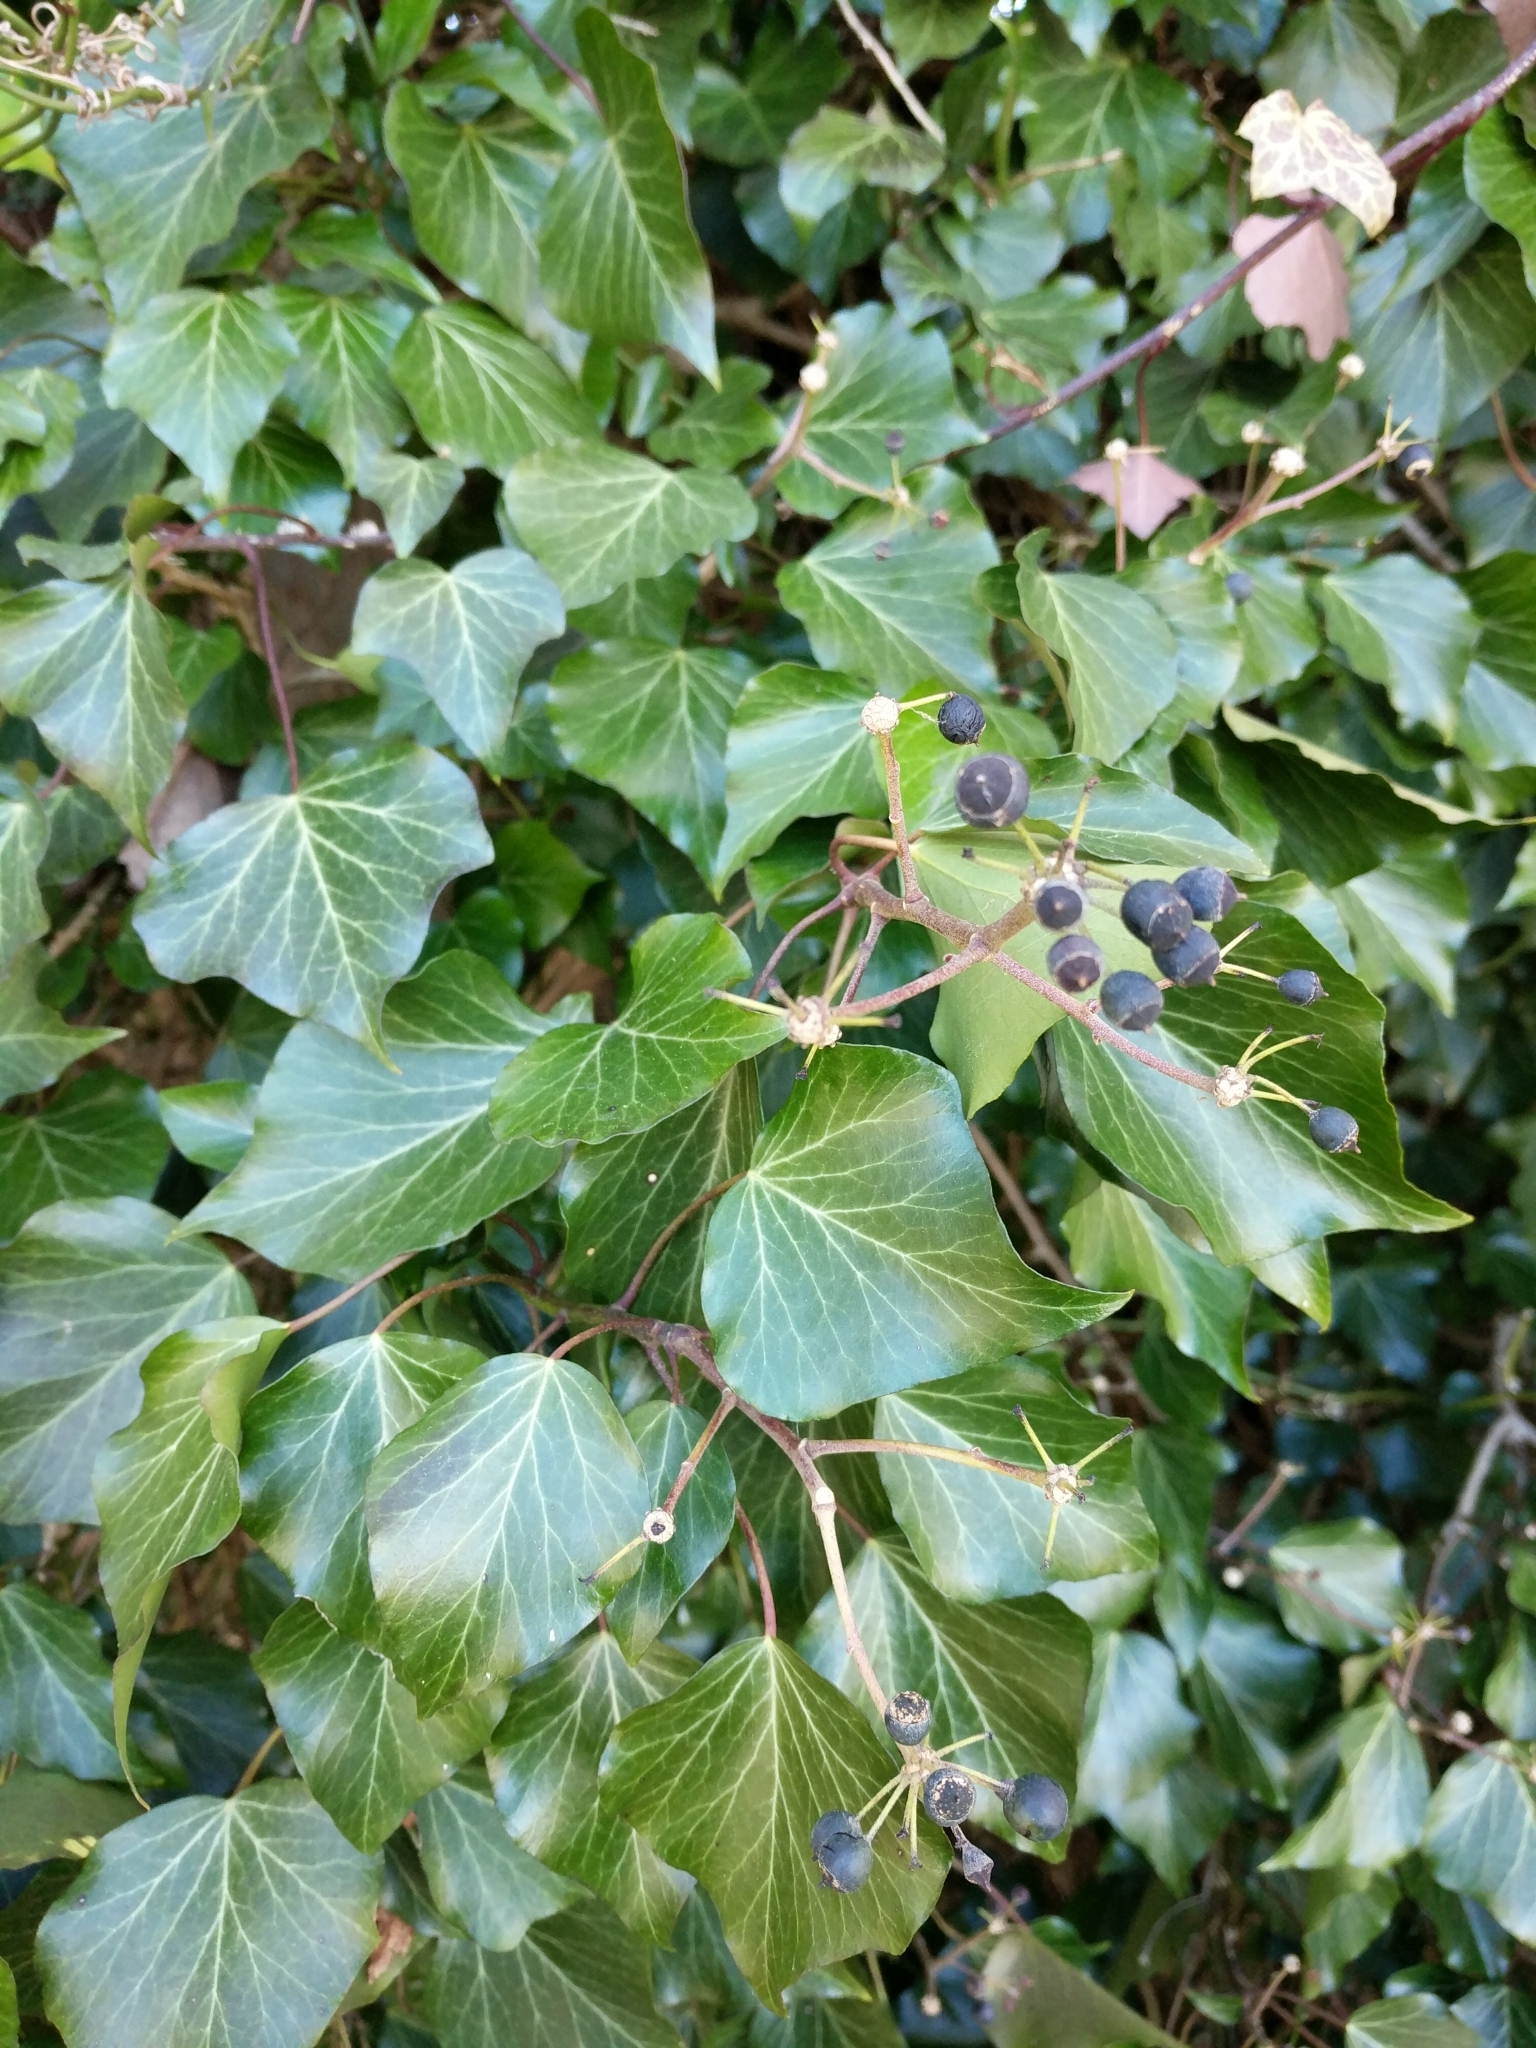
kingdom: Plantae
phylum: Tracheophyta
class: Magnoliopsida
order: Apiales
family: Araliaceae
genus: Hedera
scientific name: Hedera helix
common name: Ivy
